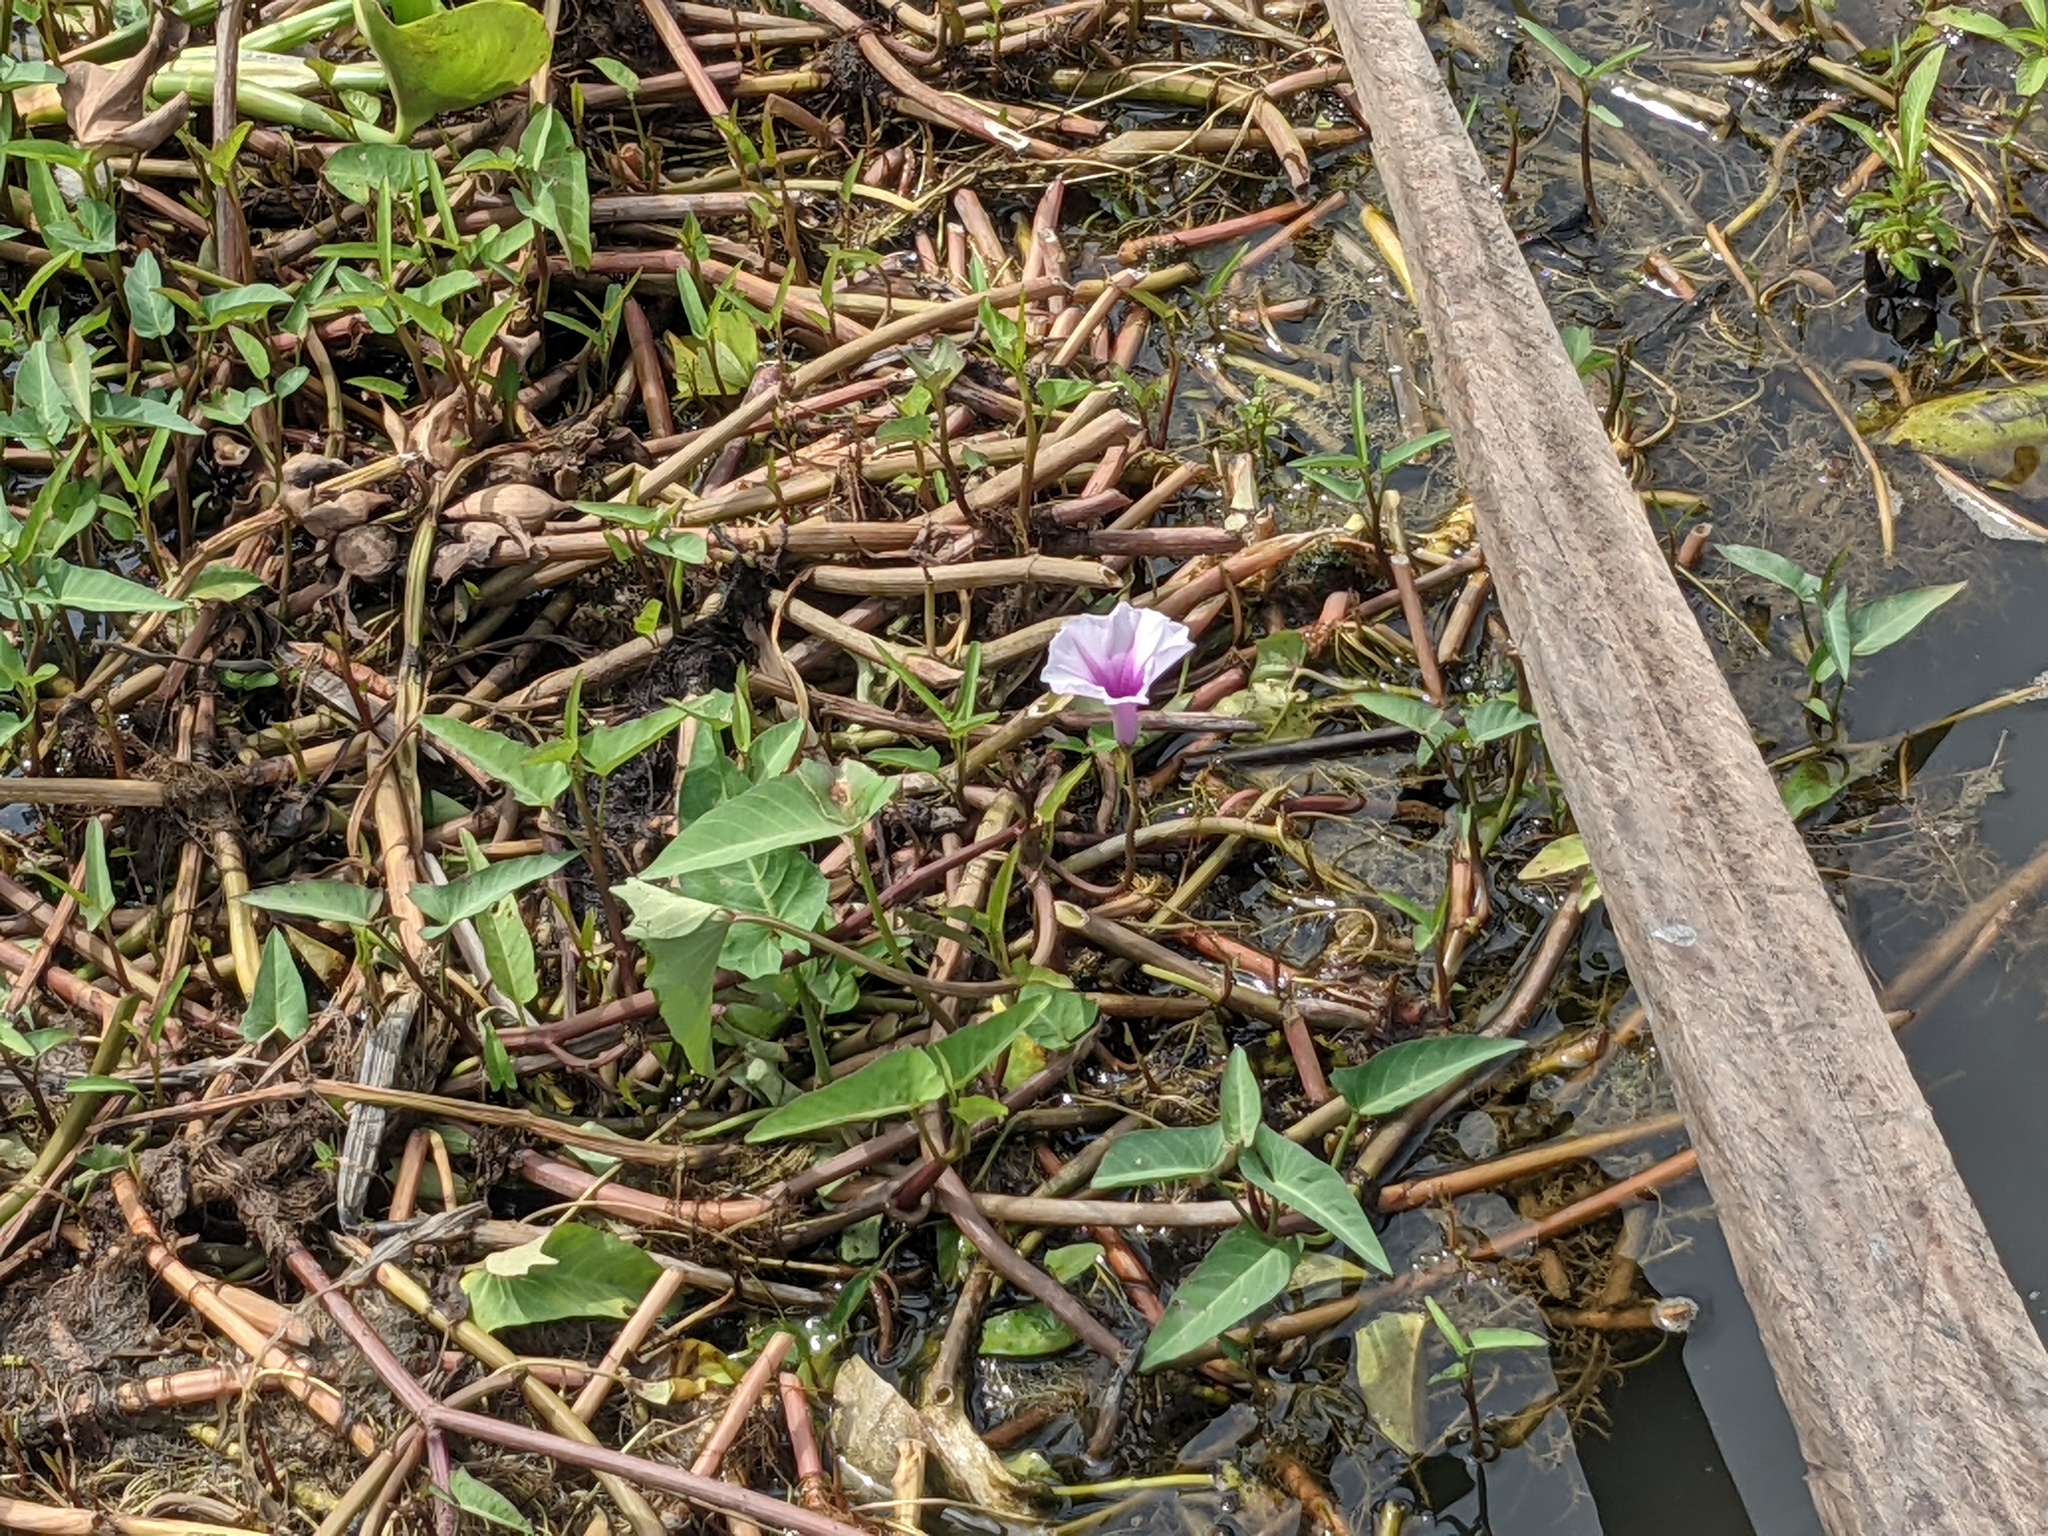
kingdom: Plantae
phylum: Tracheophyta
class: Magnoliopsida
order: Solanales
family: Convolvulaceae
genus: Ipomoea
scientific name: Ipomoea aquatica
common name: Swamp morning-glory
